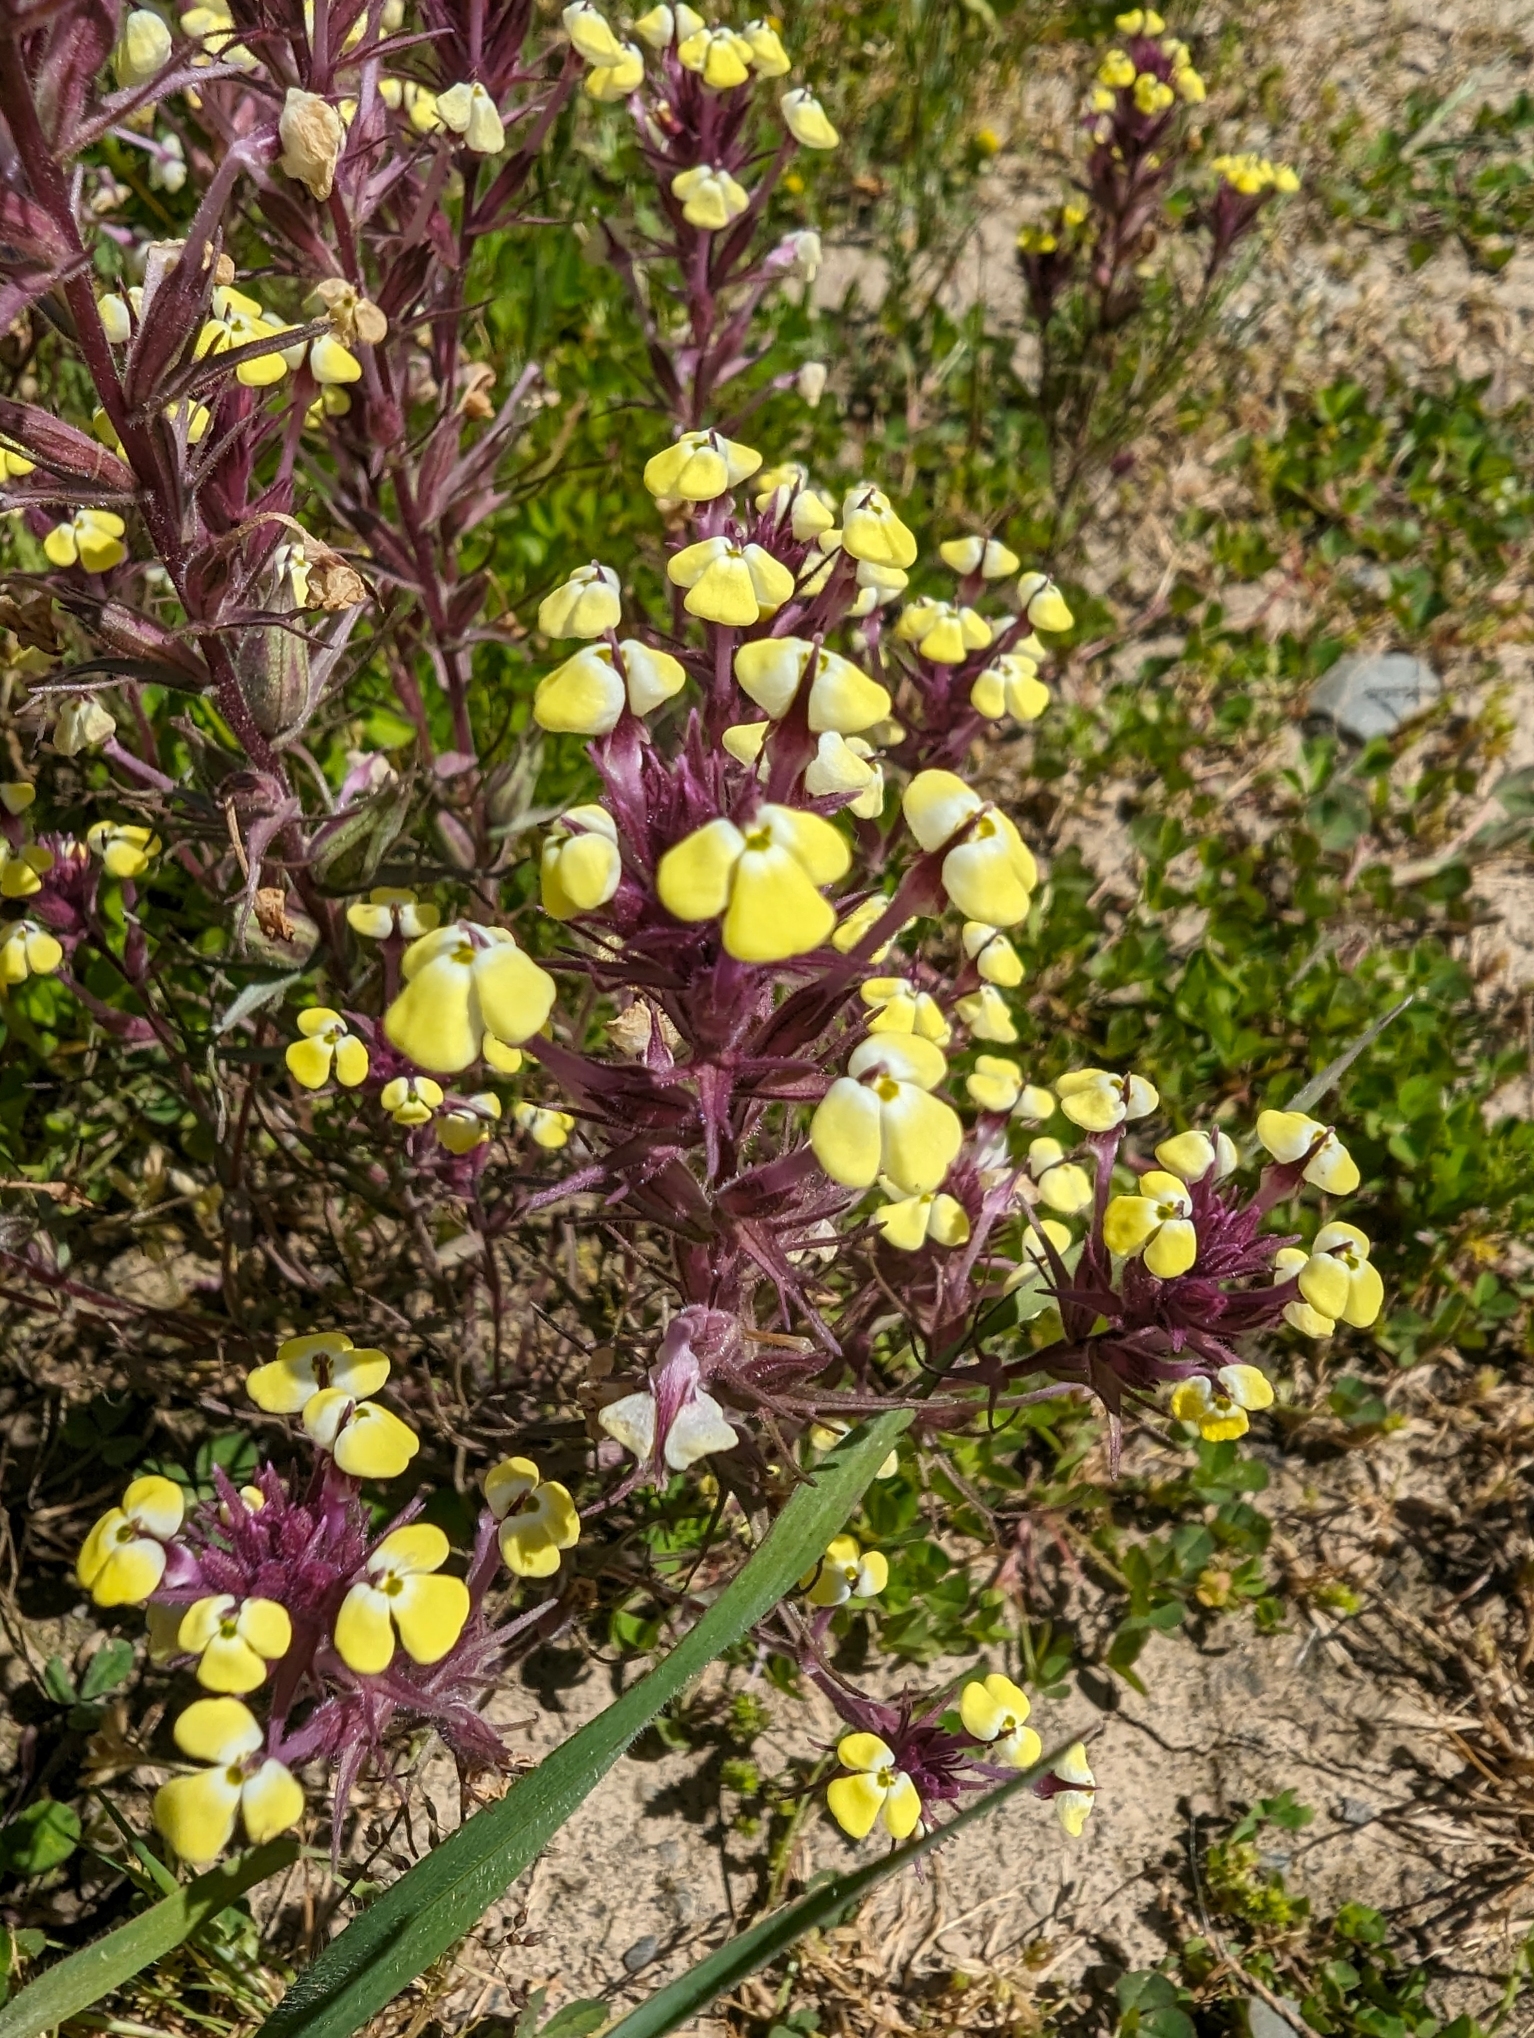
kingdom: Plantae
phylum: Tracheophyta
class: Magnoliopsida
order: Lamiales
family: Orobanchaceae
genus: Triphysaria
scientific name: Triphysaria eriantha
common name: Johnny-tuck
